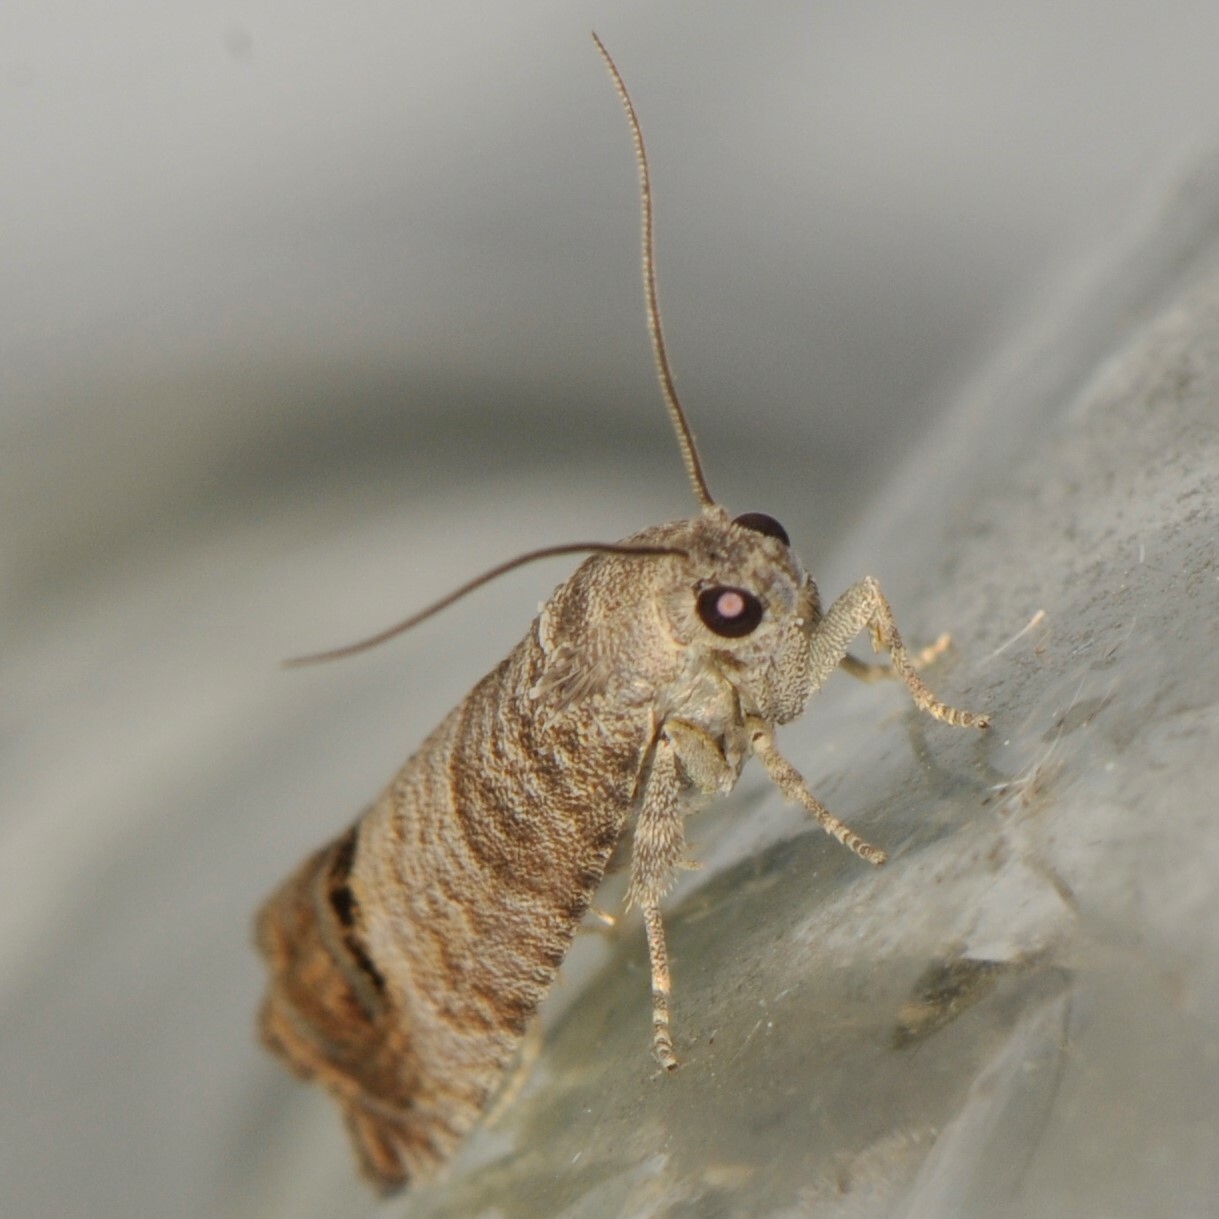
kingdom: Animalia
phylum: Arthropoda
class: Insecta
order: Lepidoptera
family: Tortricidae
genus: Cydia
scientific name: Cydia pomonella
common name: Codling moth
